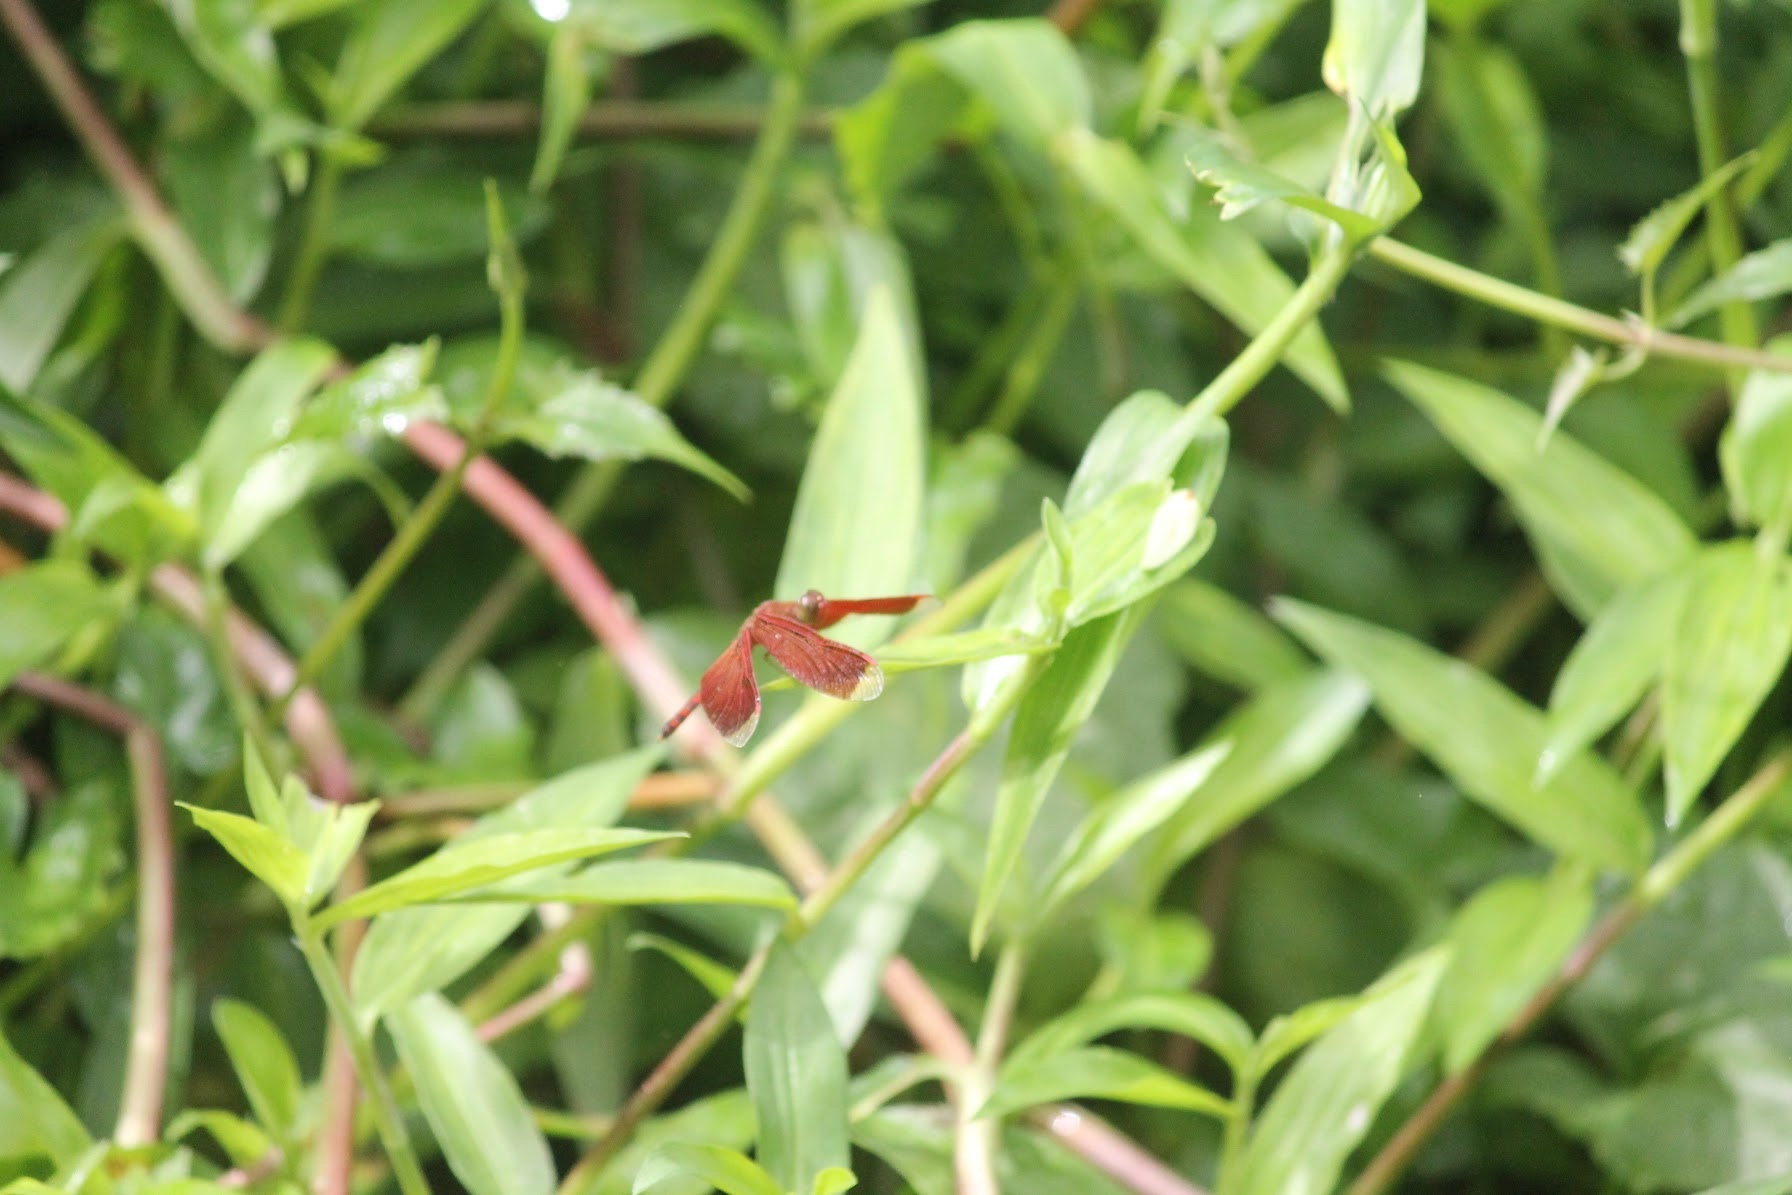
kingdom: Animalia
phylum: Arthropoda
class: Insecta
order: Odonata
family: Libellulidae
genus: Neurothemis
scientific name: Neurothemis terminata
